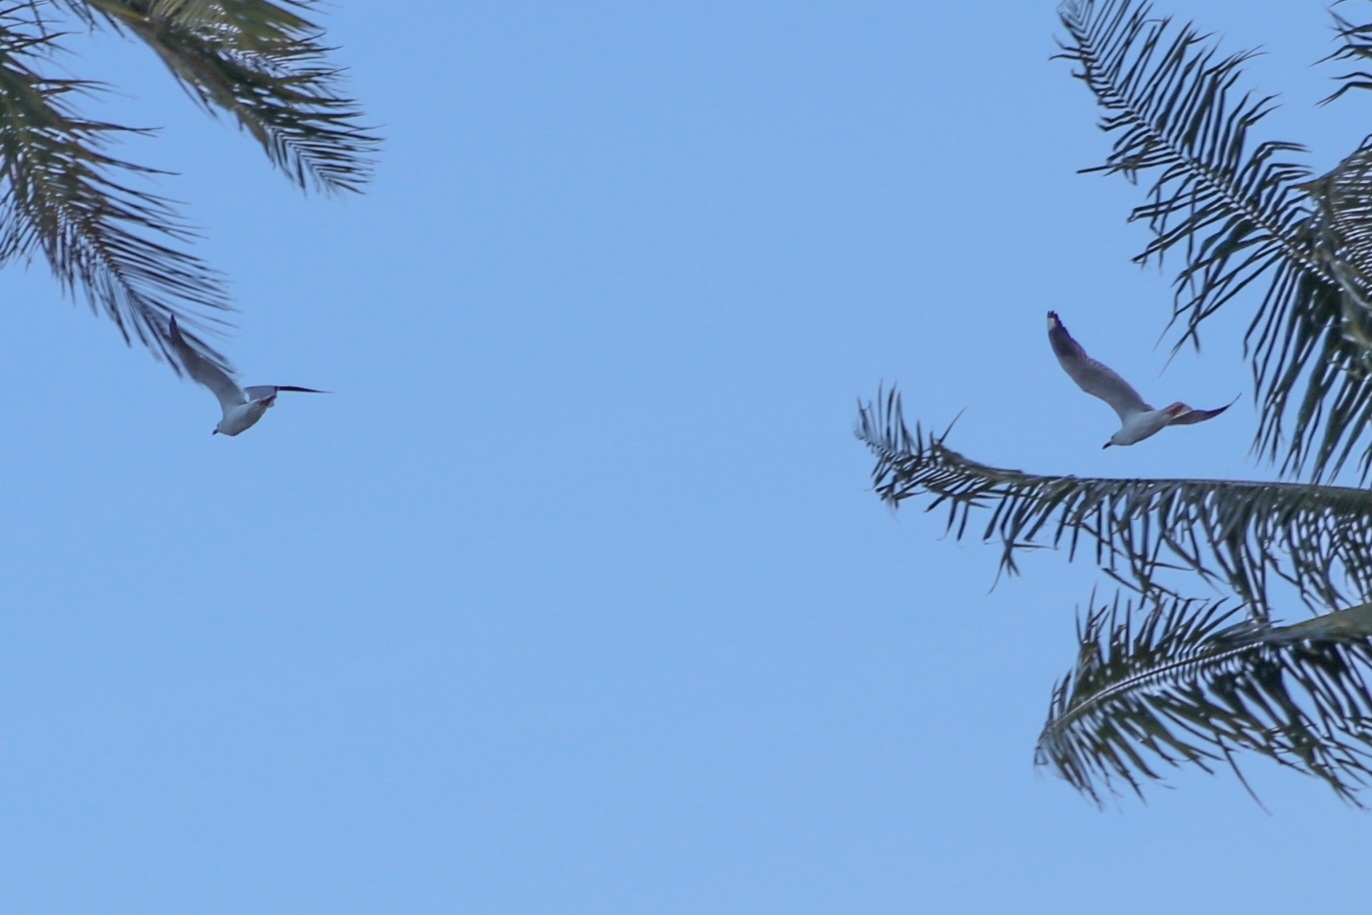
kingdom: Animalia
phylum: Chordata
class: Aves
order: Charadriiformes
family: Laridae
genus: Chroicocephalus
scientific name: Chroicocephalus novaehollandiae
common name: Silver gull
